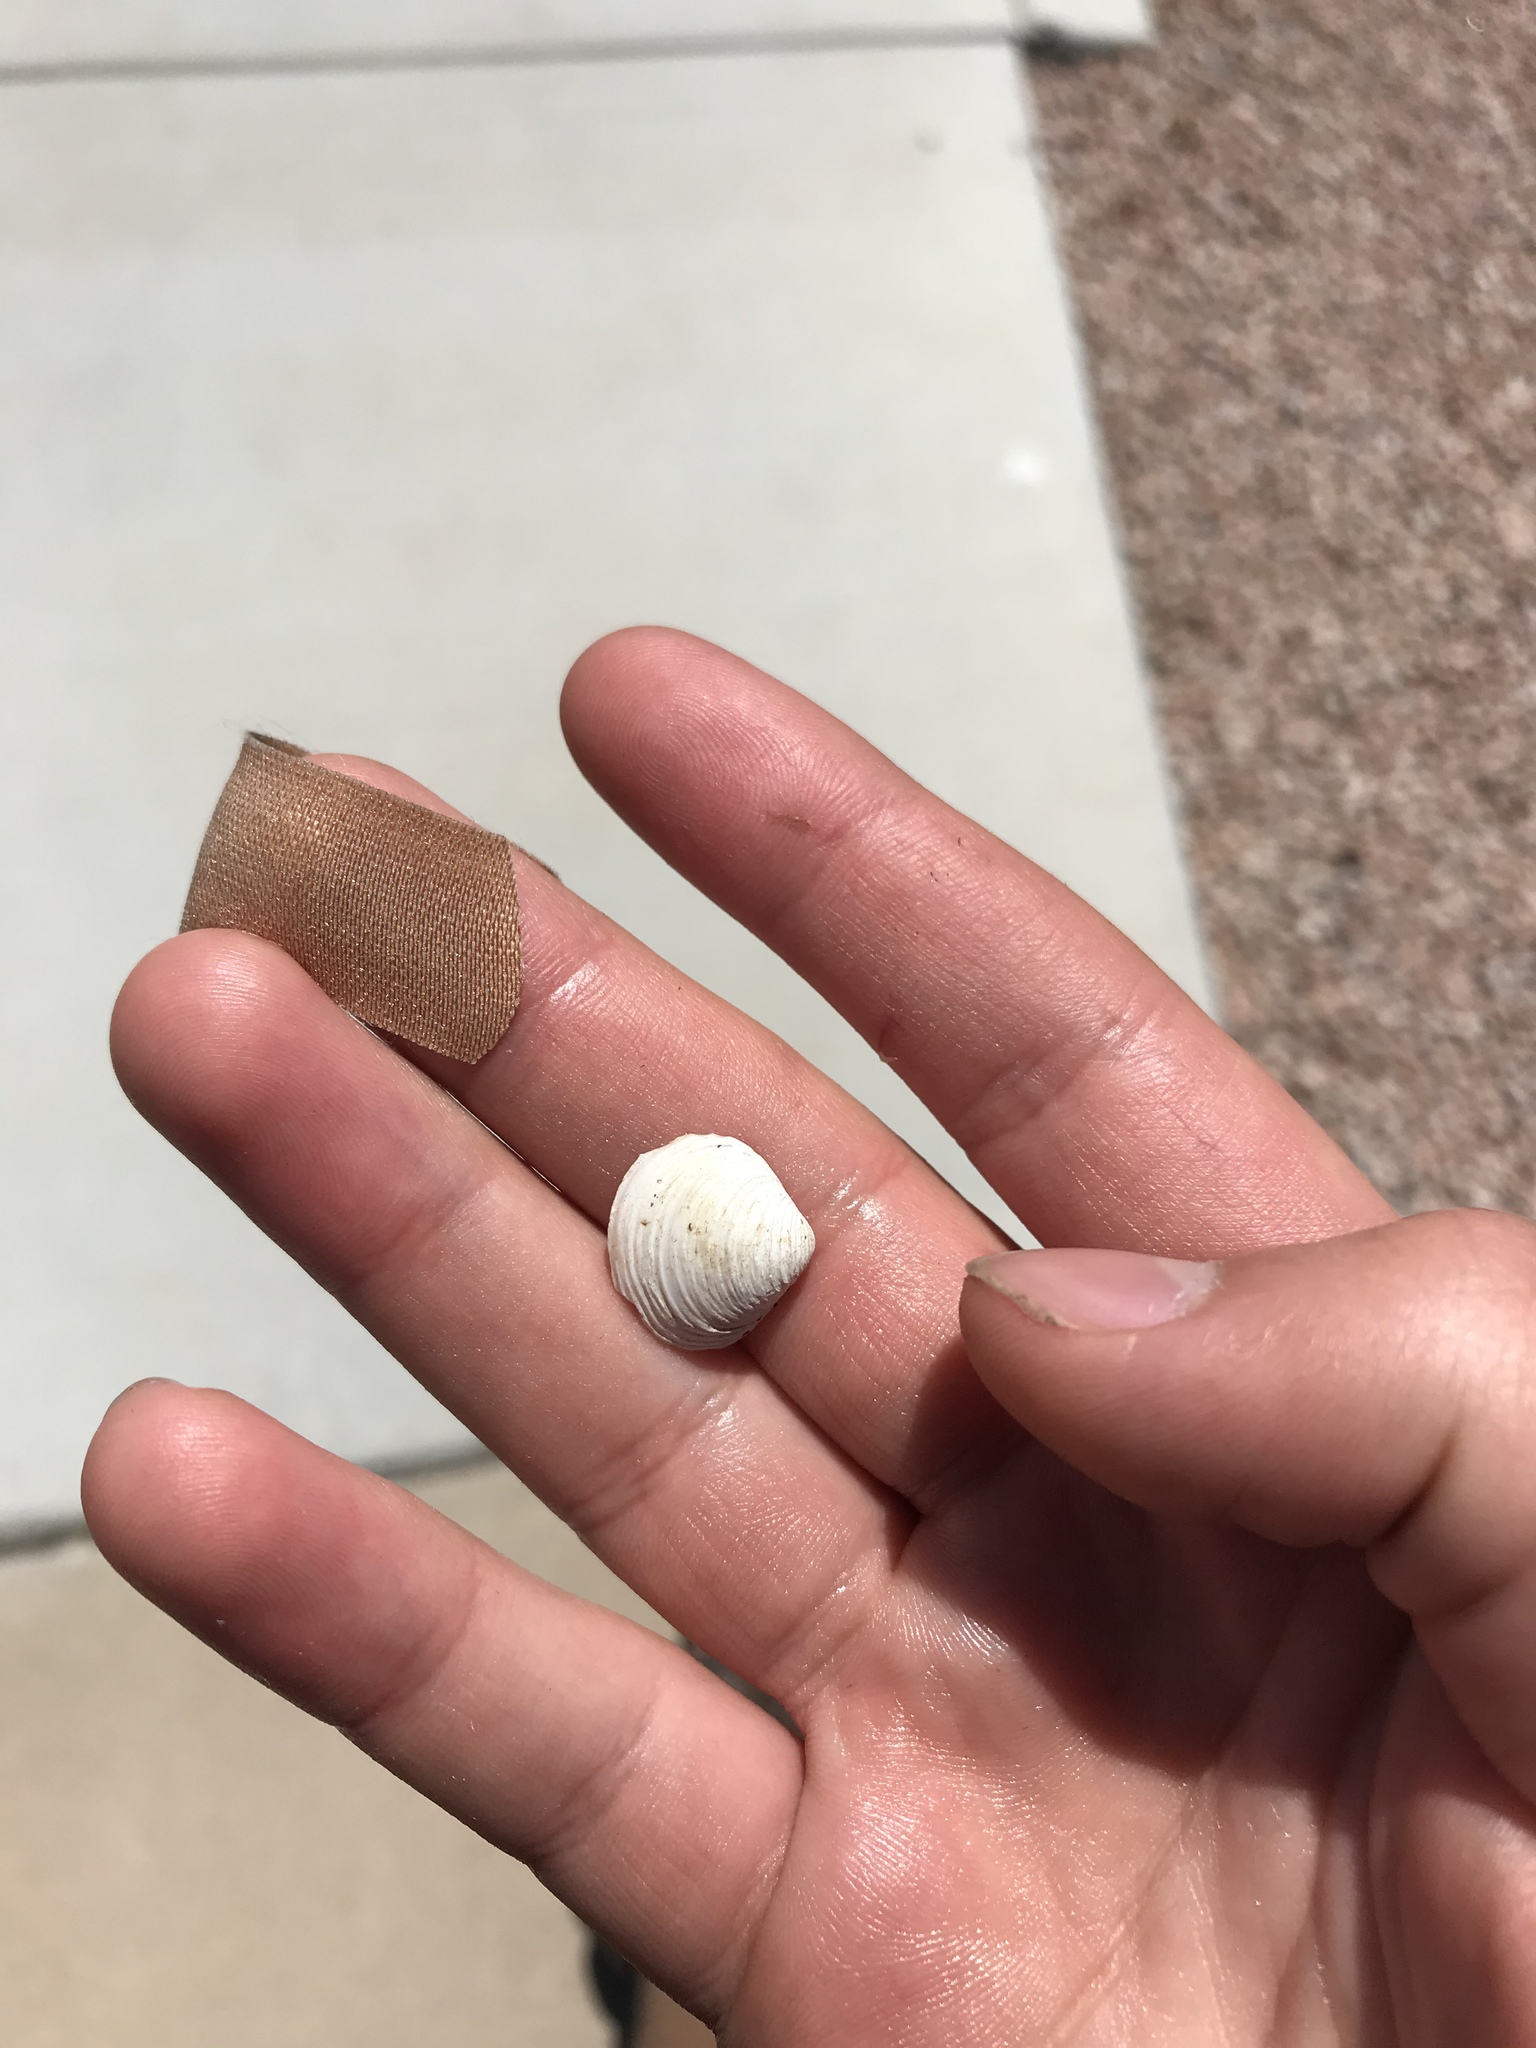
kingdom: Animalia
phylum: Mollusca
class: Bivalvia
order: Venerida
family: Cyrenidae
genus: Corbicula
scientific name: Corbicula fluminea
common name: Asian clam
